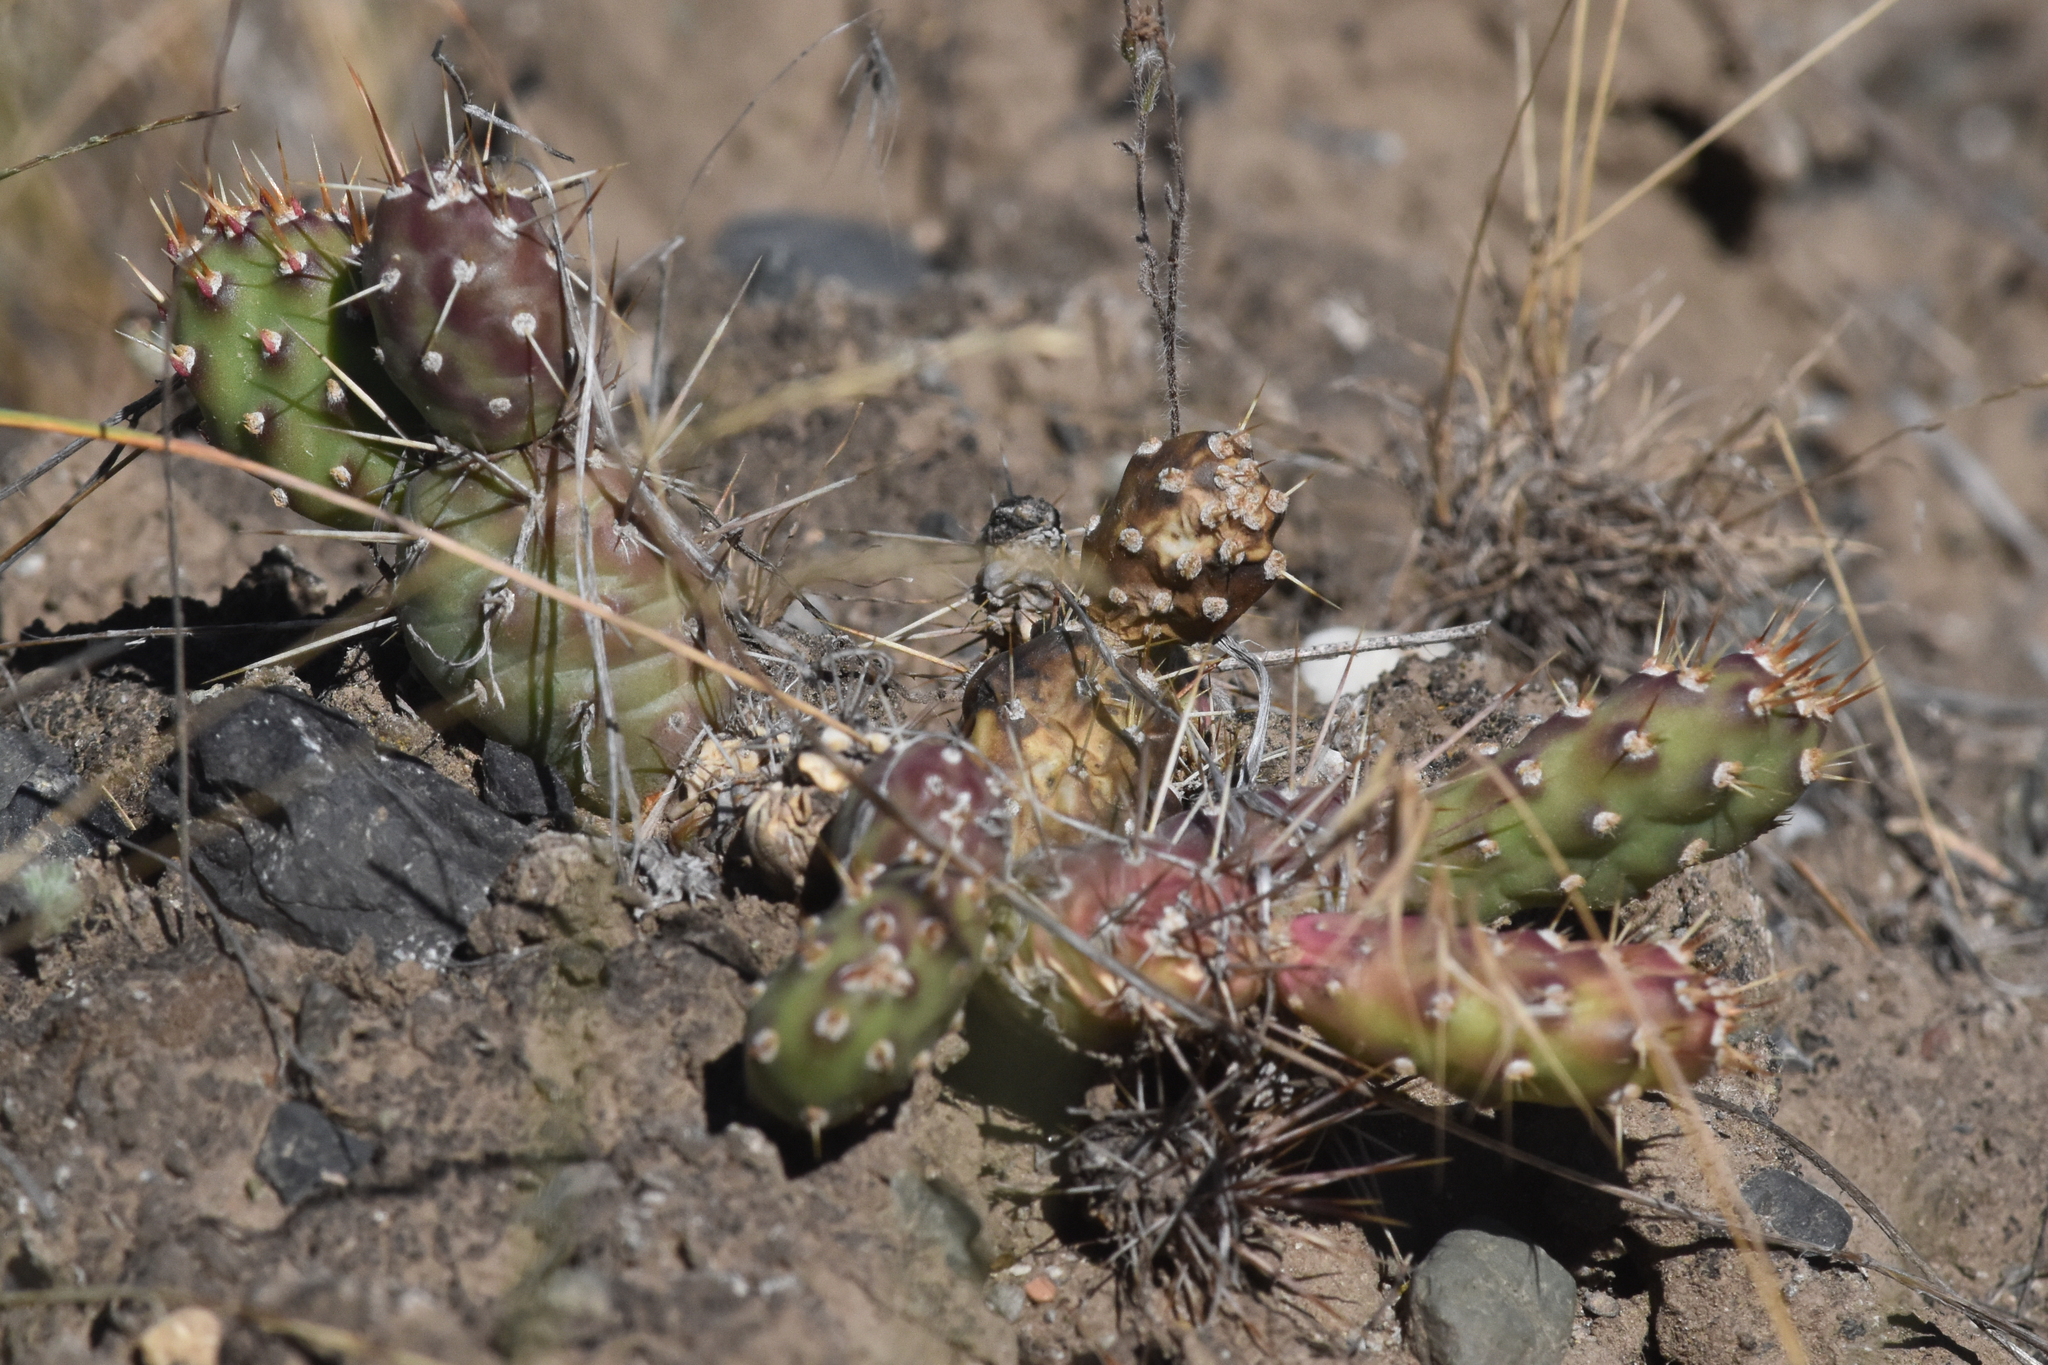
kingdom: Plantae
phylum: Tracheophyta
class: Magnoliopsida
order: Caryophyllales
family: Cactaceae
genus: Opuntia
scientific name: Opuntia fragilis
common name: Brittle cactus
